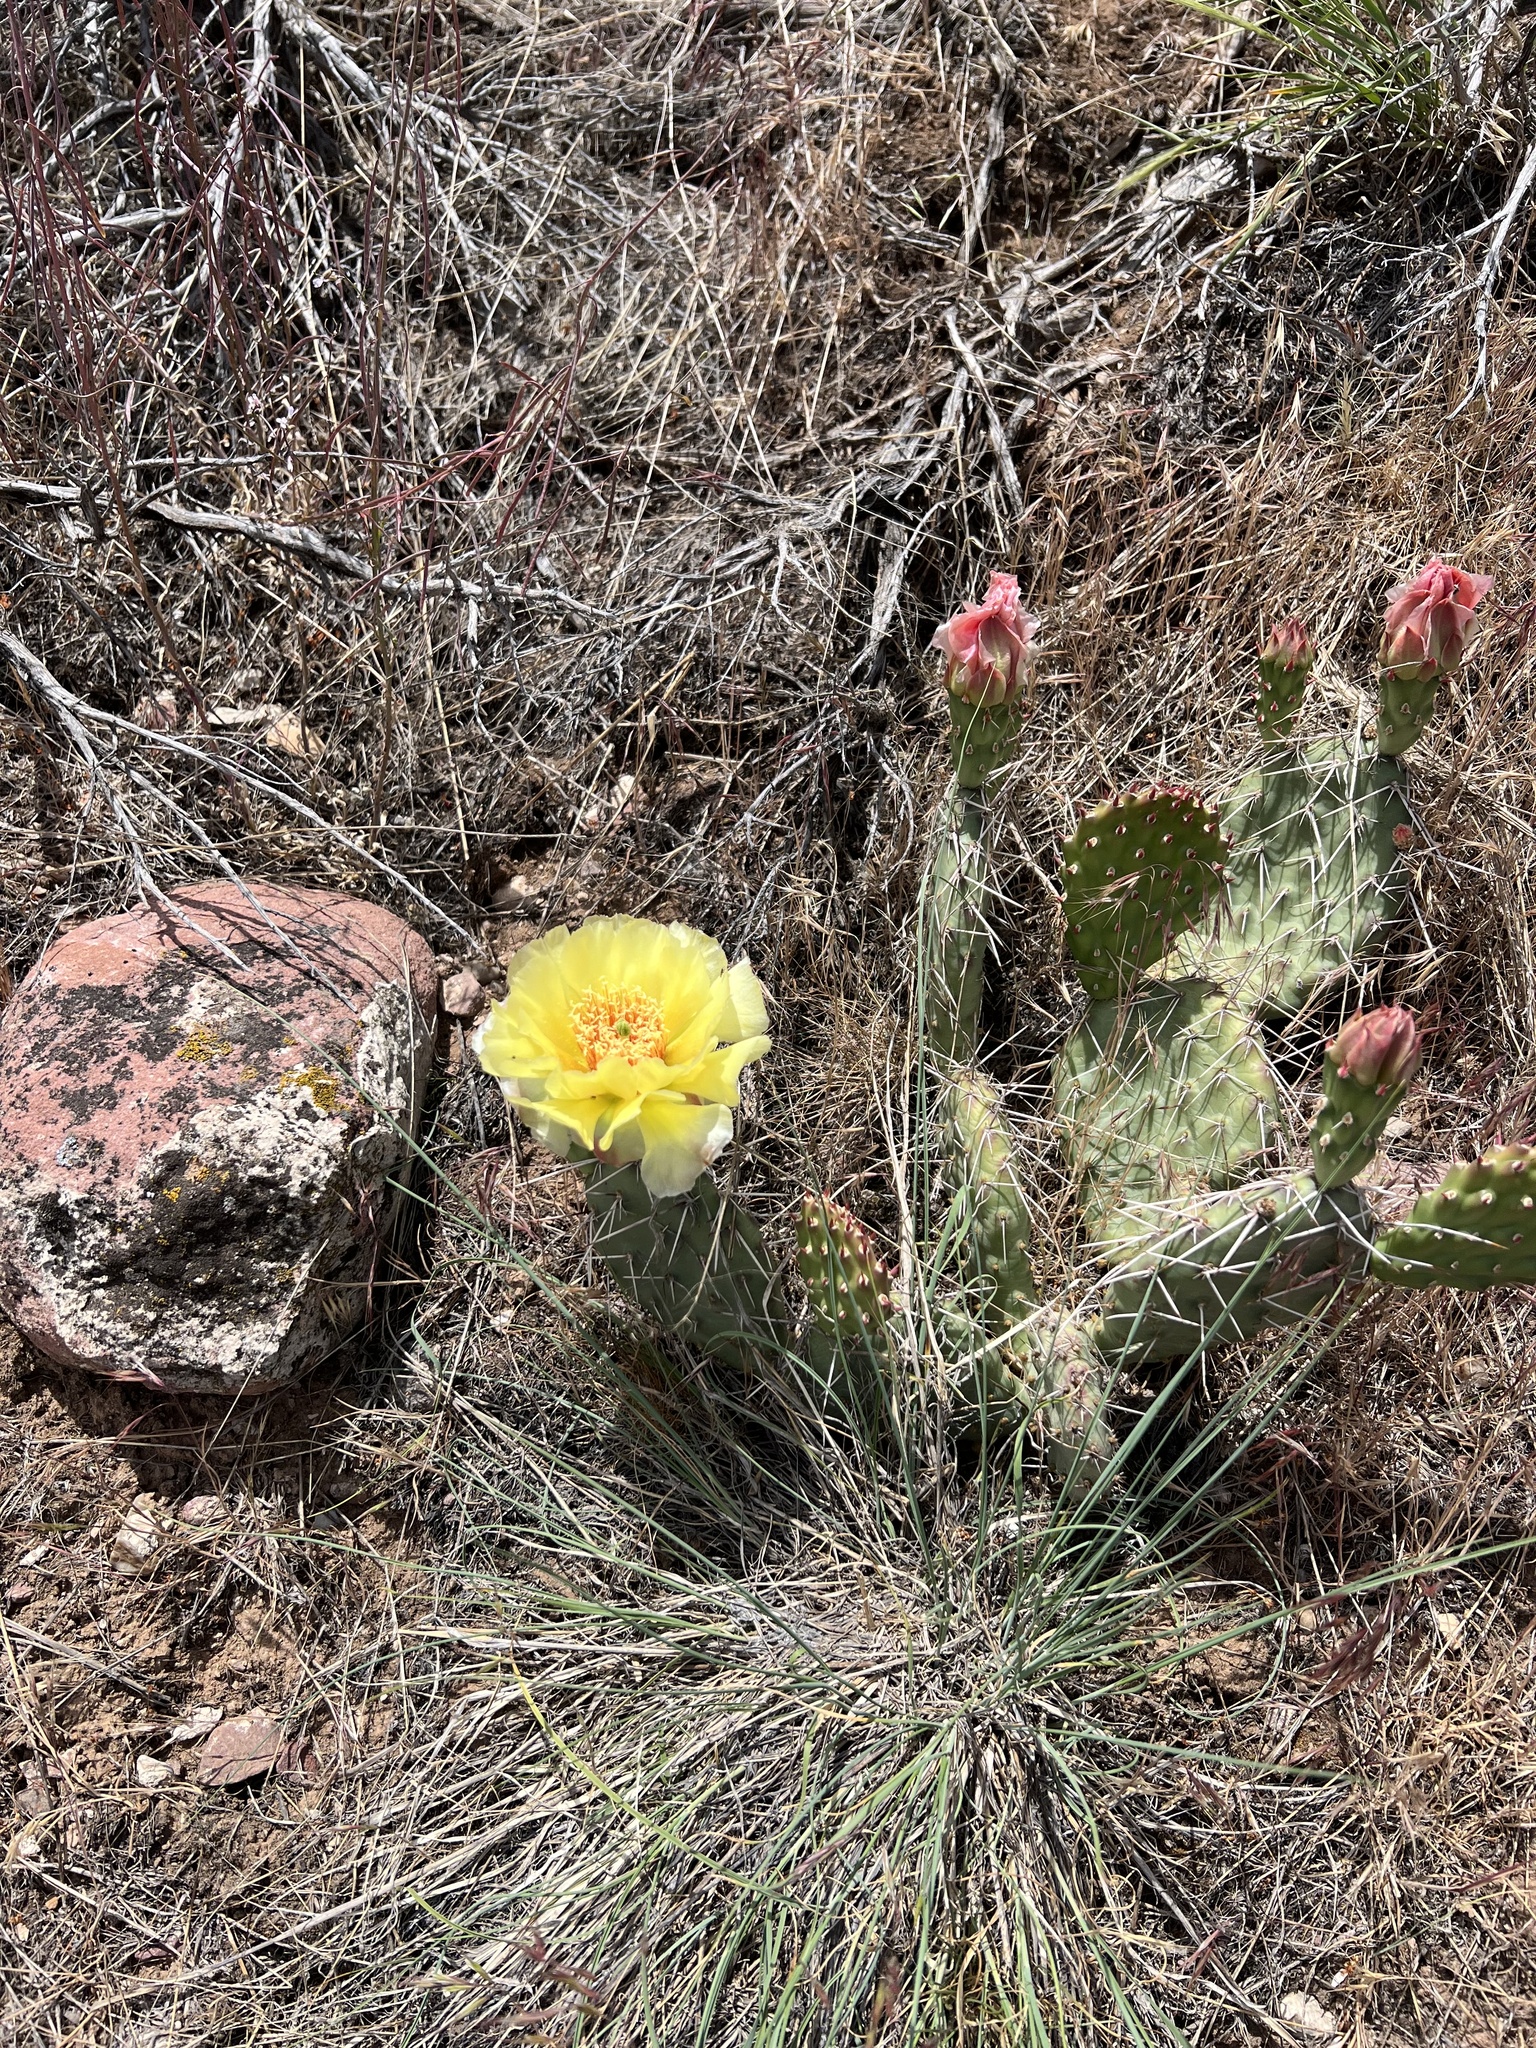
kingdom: Plantae
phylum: Tracheophyta
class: Magnoliopsida
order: Caryophyllales
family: Cactaceae
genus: Opuntia
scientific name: Opuntia polyacantha
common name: Plains prickly-pear
